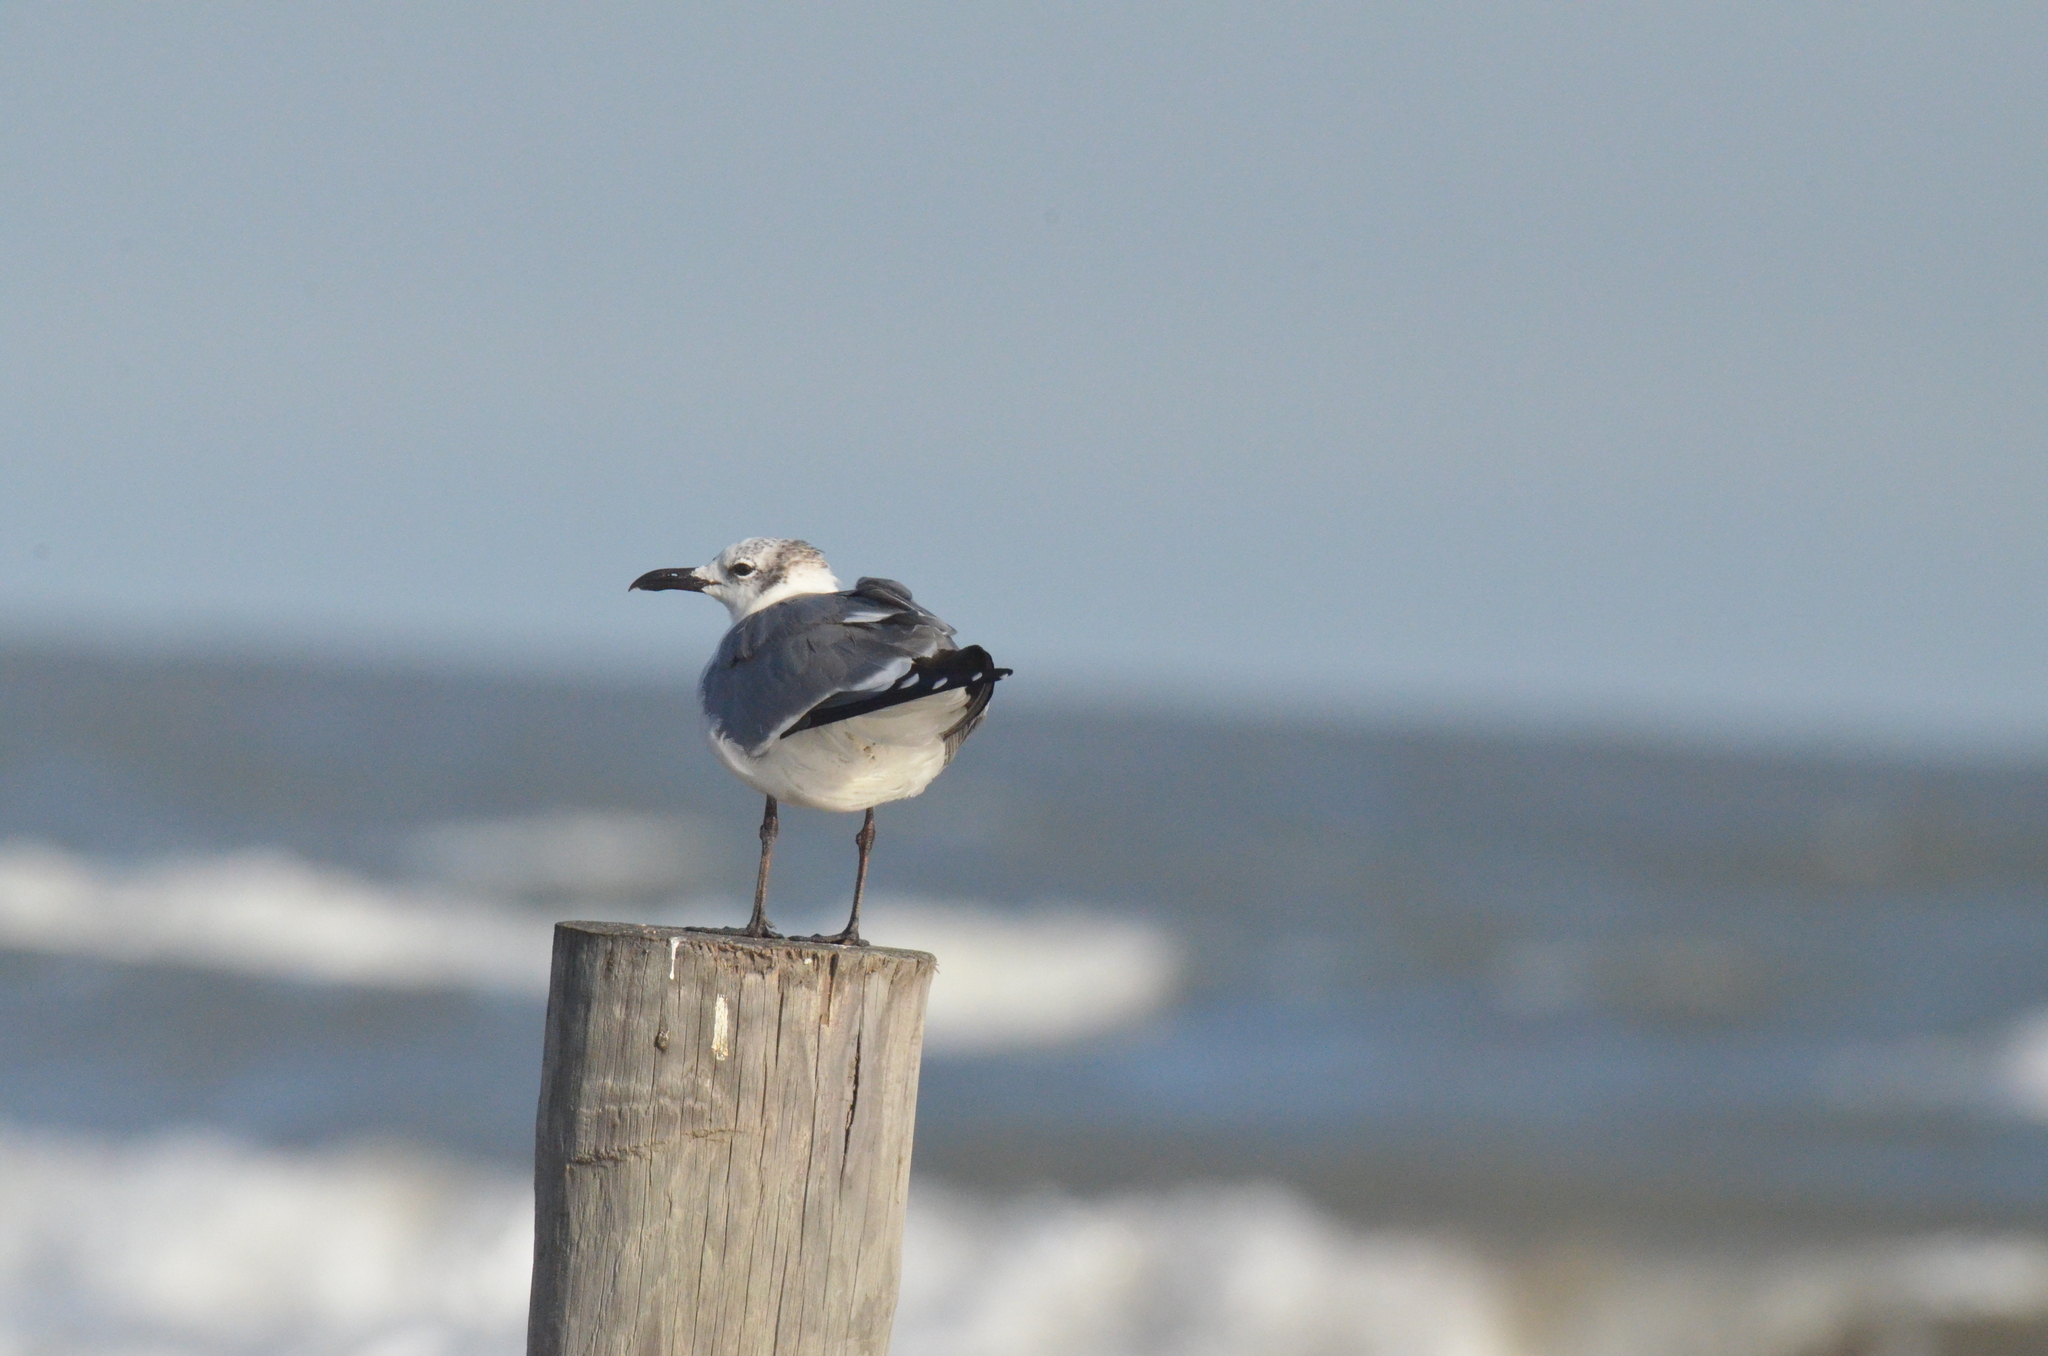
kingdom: Animalia
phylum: Chordata
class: Aves
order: Charadriiformes
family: Laridae
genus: Leucophaeus
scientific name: Leucophaeus atricilla
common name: Laughing gull
